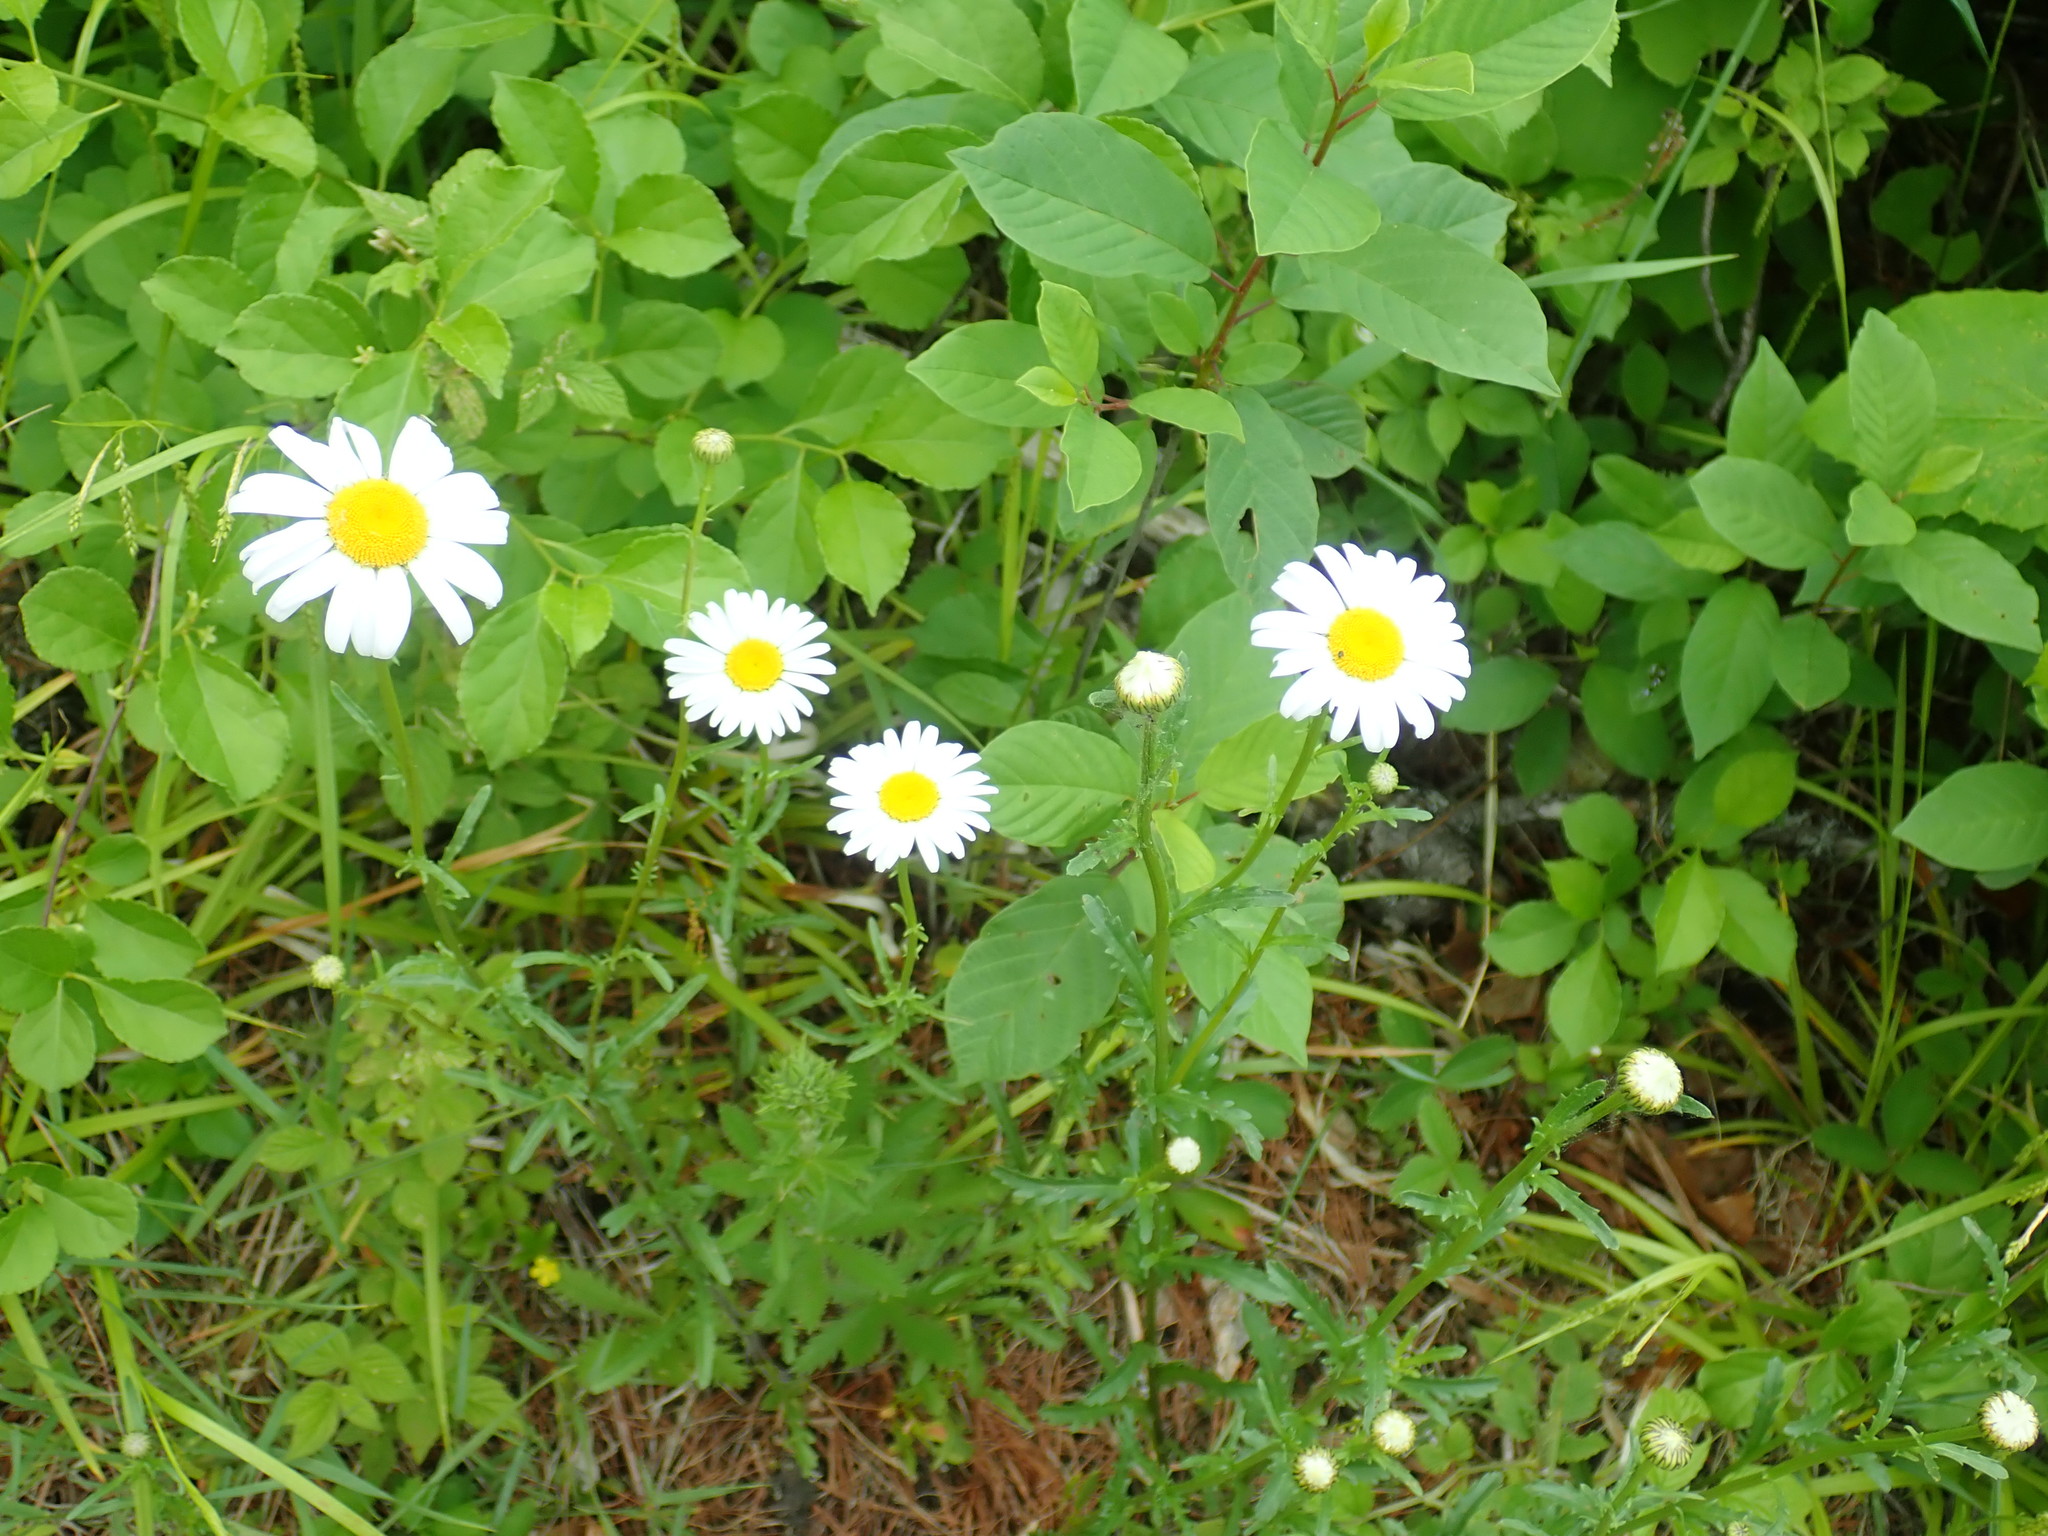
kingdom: Plantae
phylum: Tracheophyta
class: Magnoliopsida
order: Asterales
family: Asteraceae
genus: Leucanthemum
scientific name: Leucanthemum vulgare
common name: Oxeye daisy
